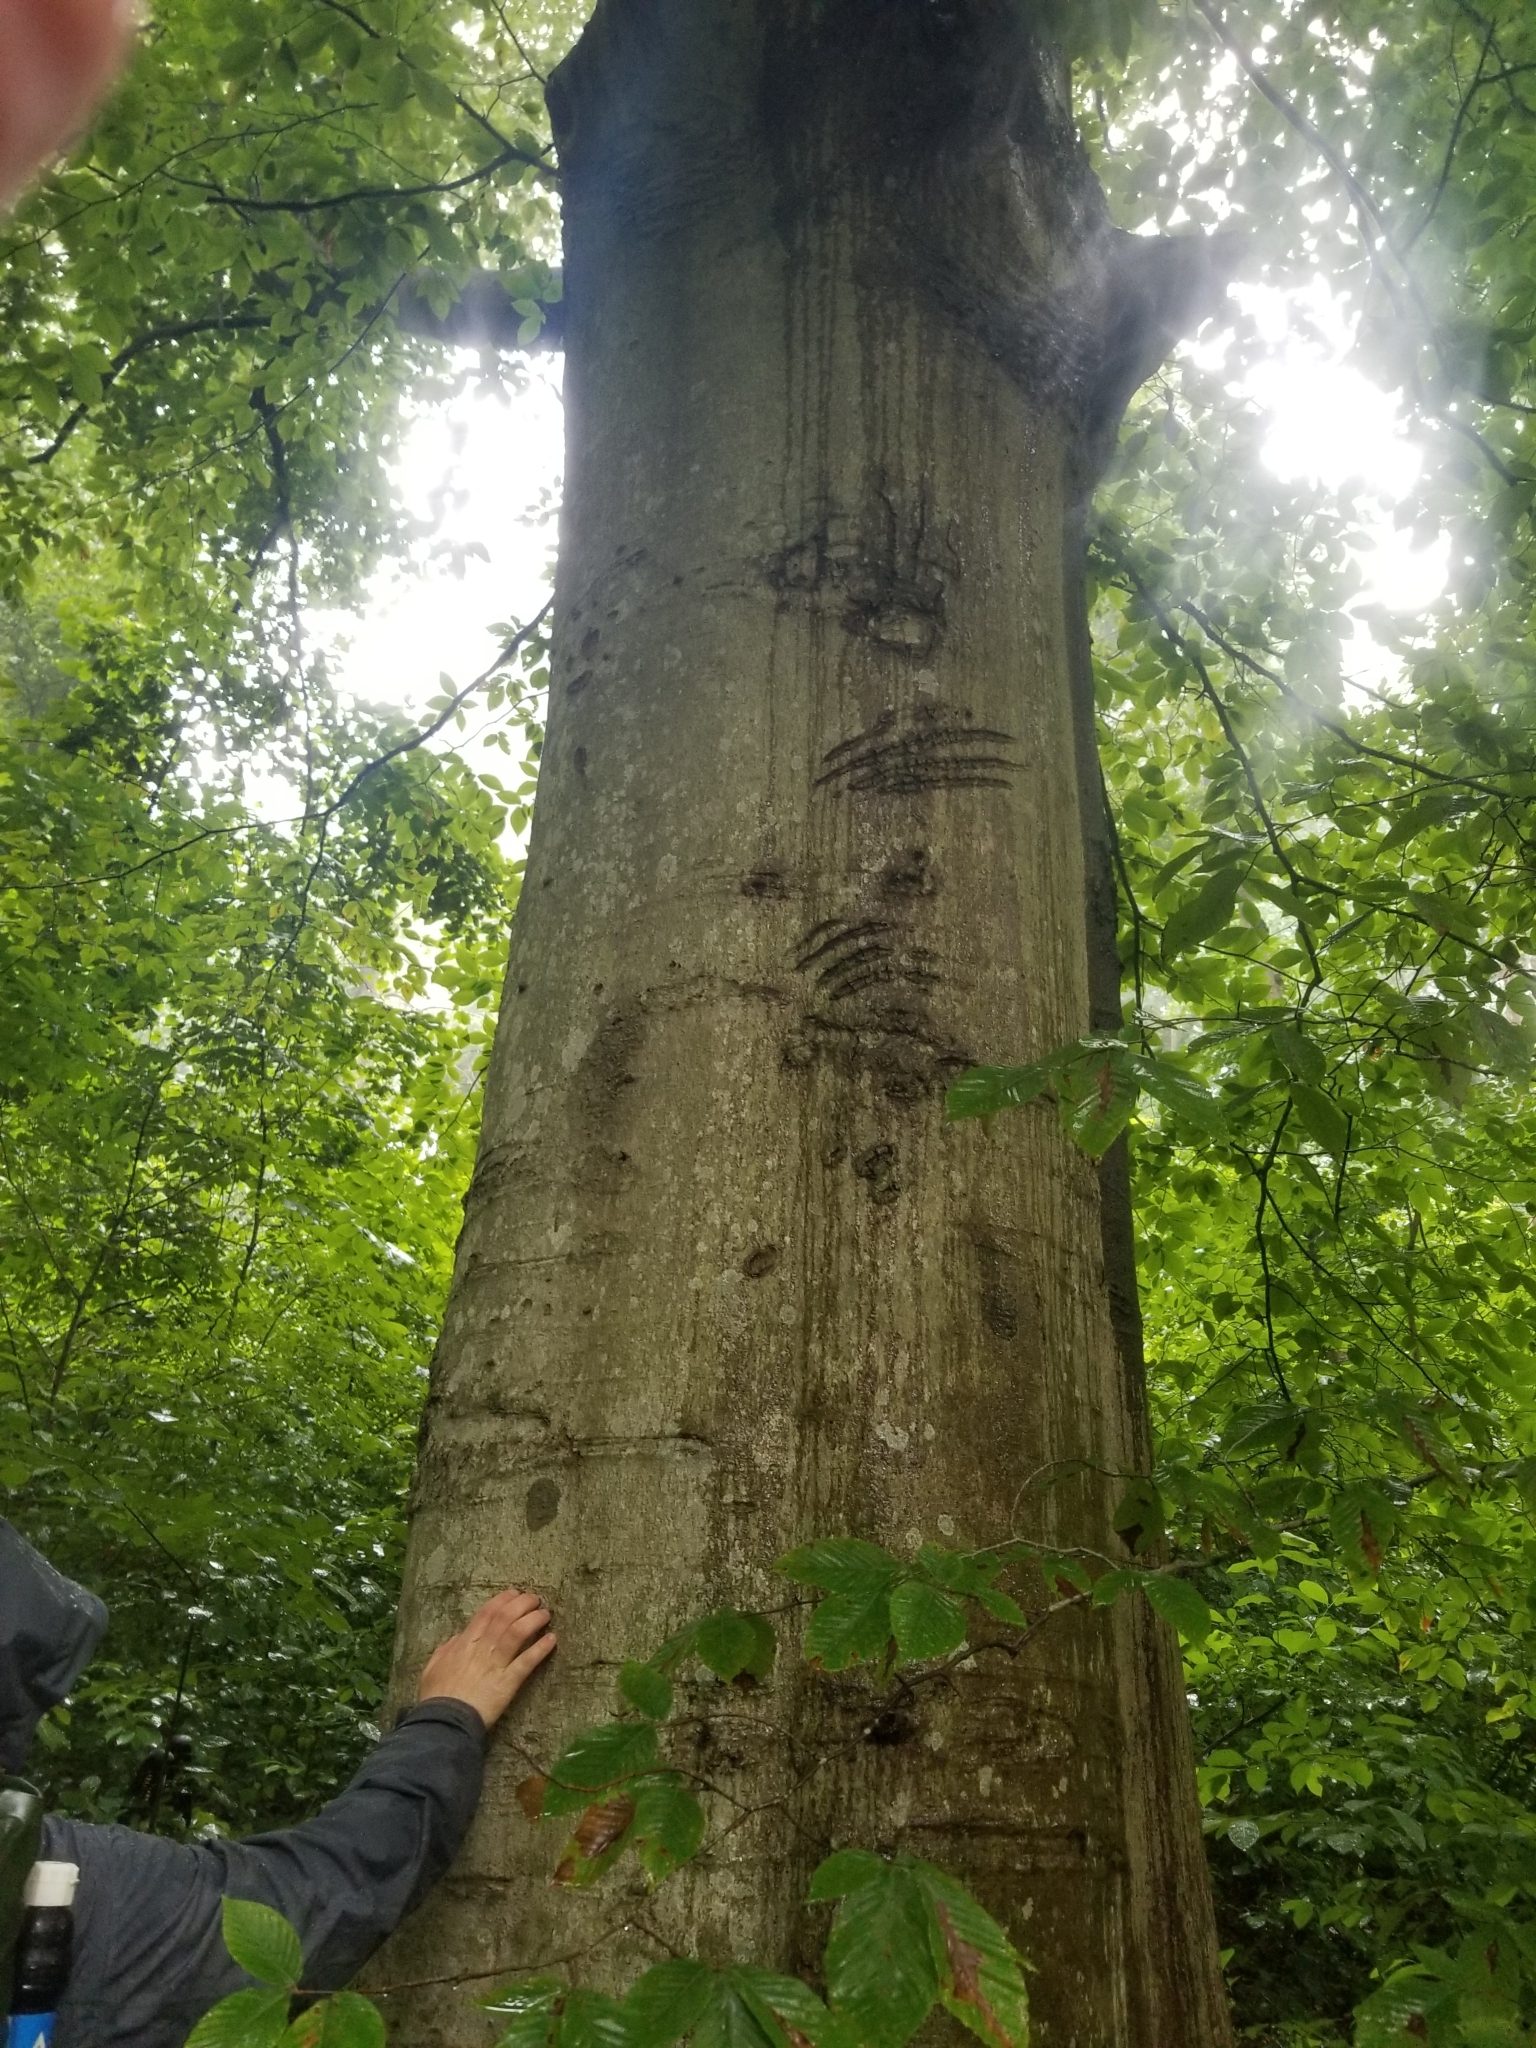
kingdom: Animalia
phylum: Chordata
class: Mammalia
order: Carnivora
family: Ursidae
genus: Ursus
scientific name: Ursus americanus
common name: American black bear
